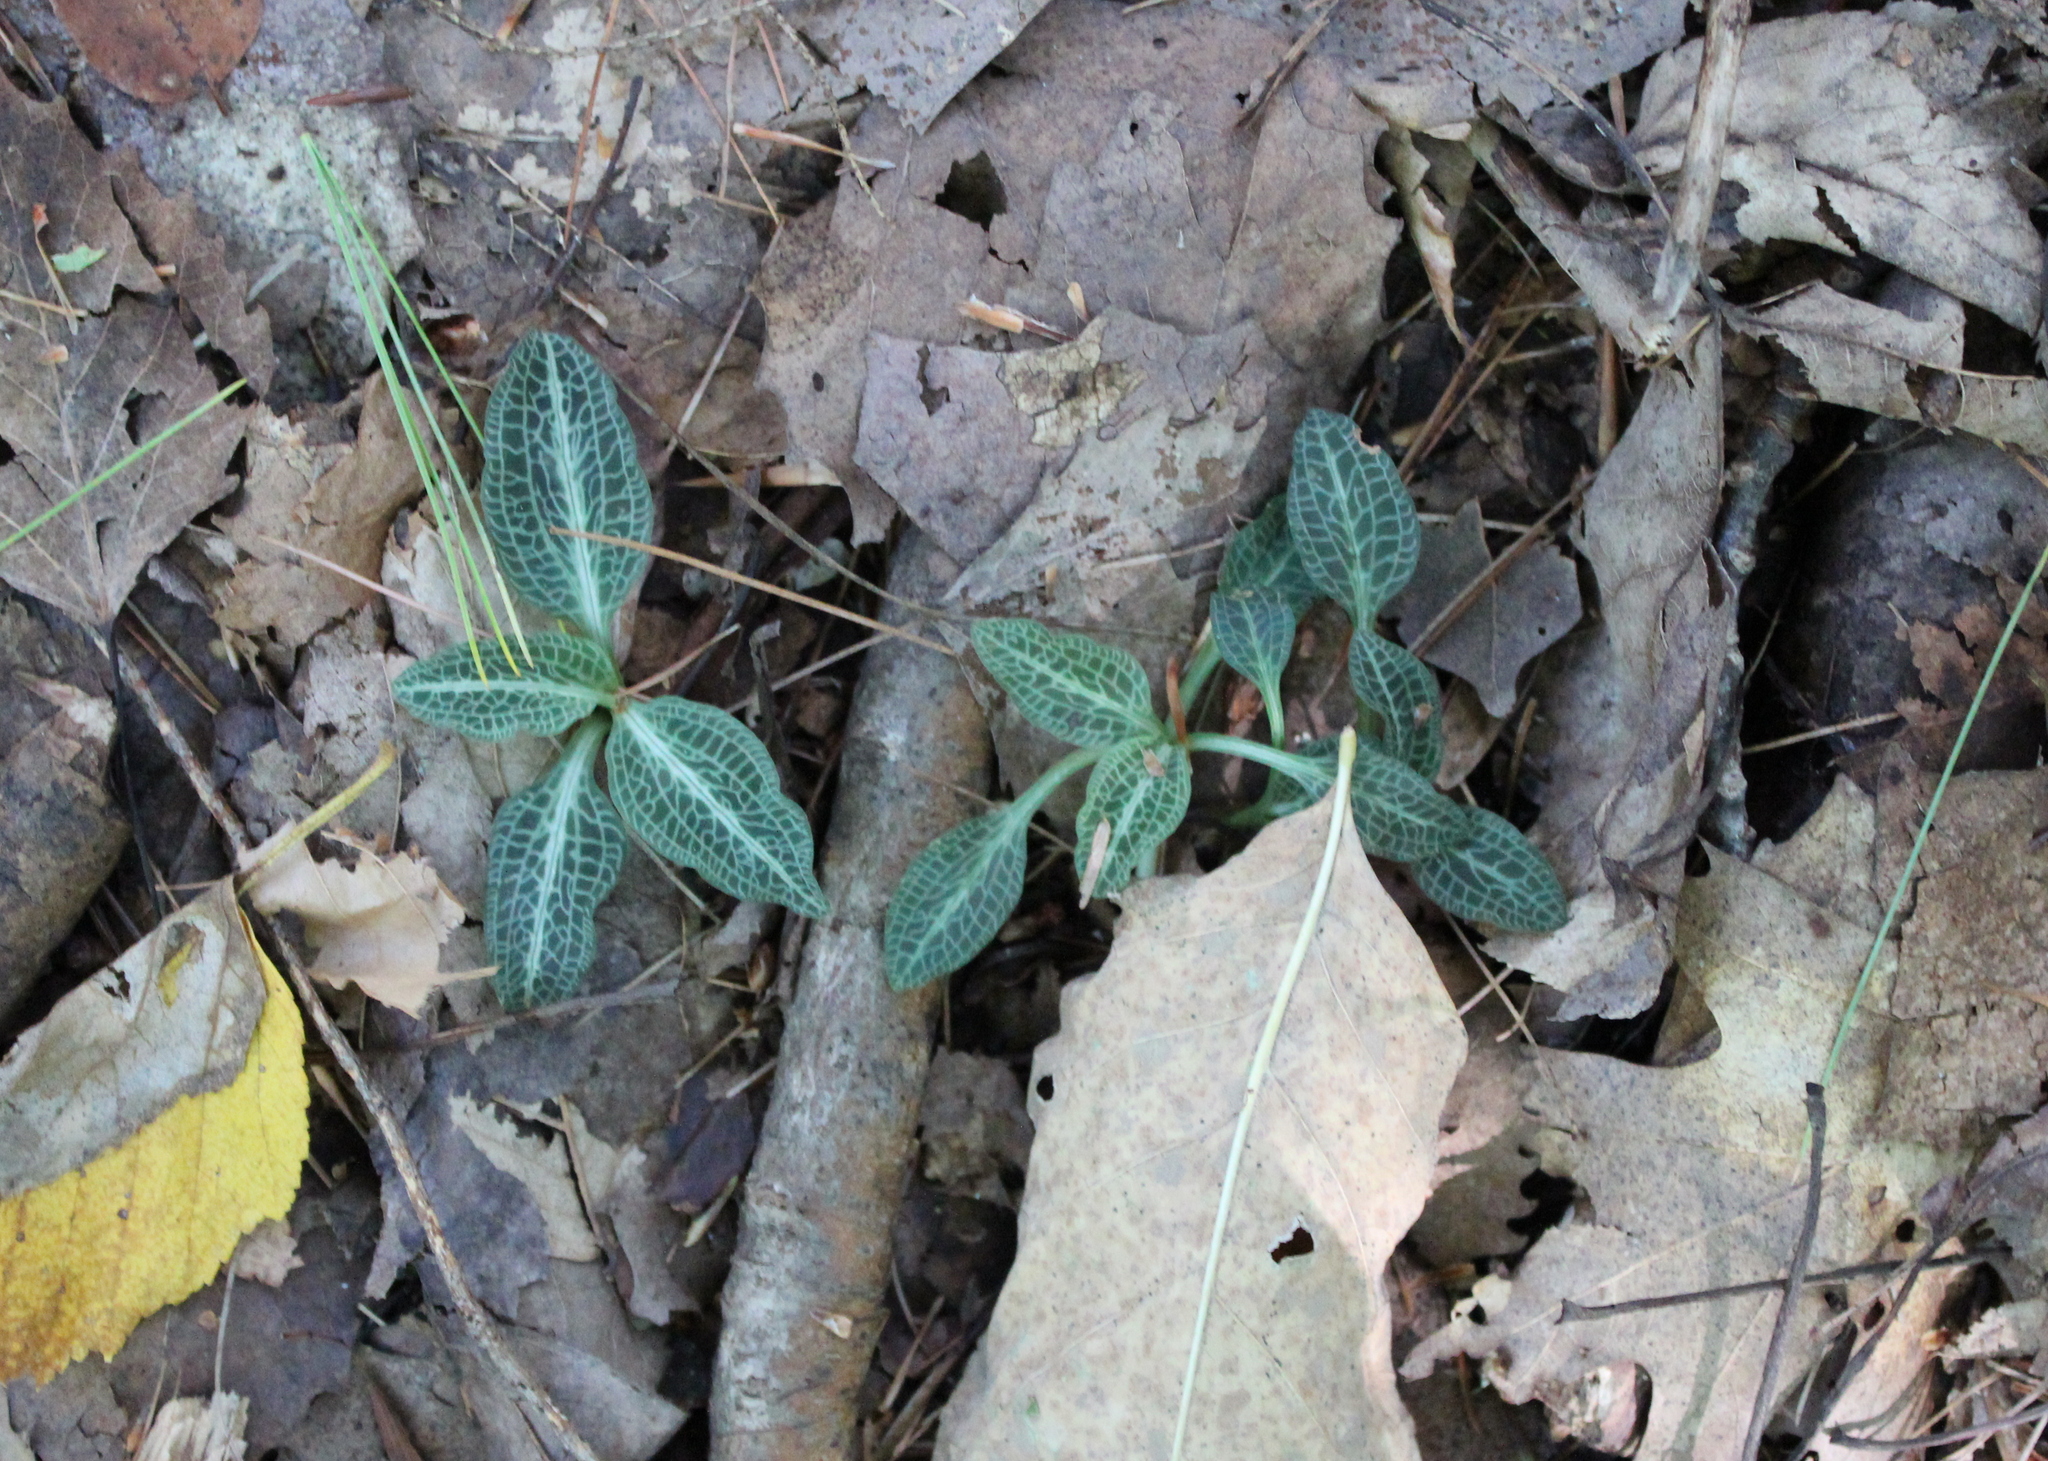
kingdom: Plantae
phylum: Tracheophyta
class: Liliopsida
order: Asparagales
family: Orchidaceae
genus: Goodyera
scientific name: Goodyera pubescens
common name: Downy rattlesnake-plantain
